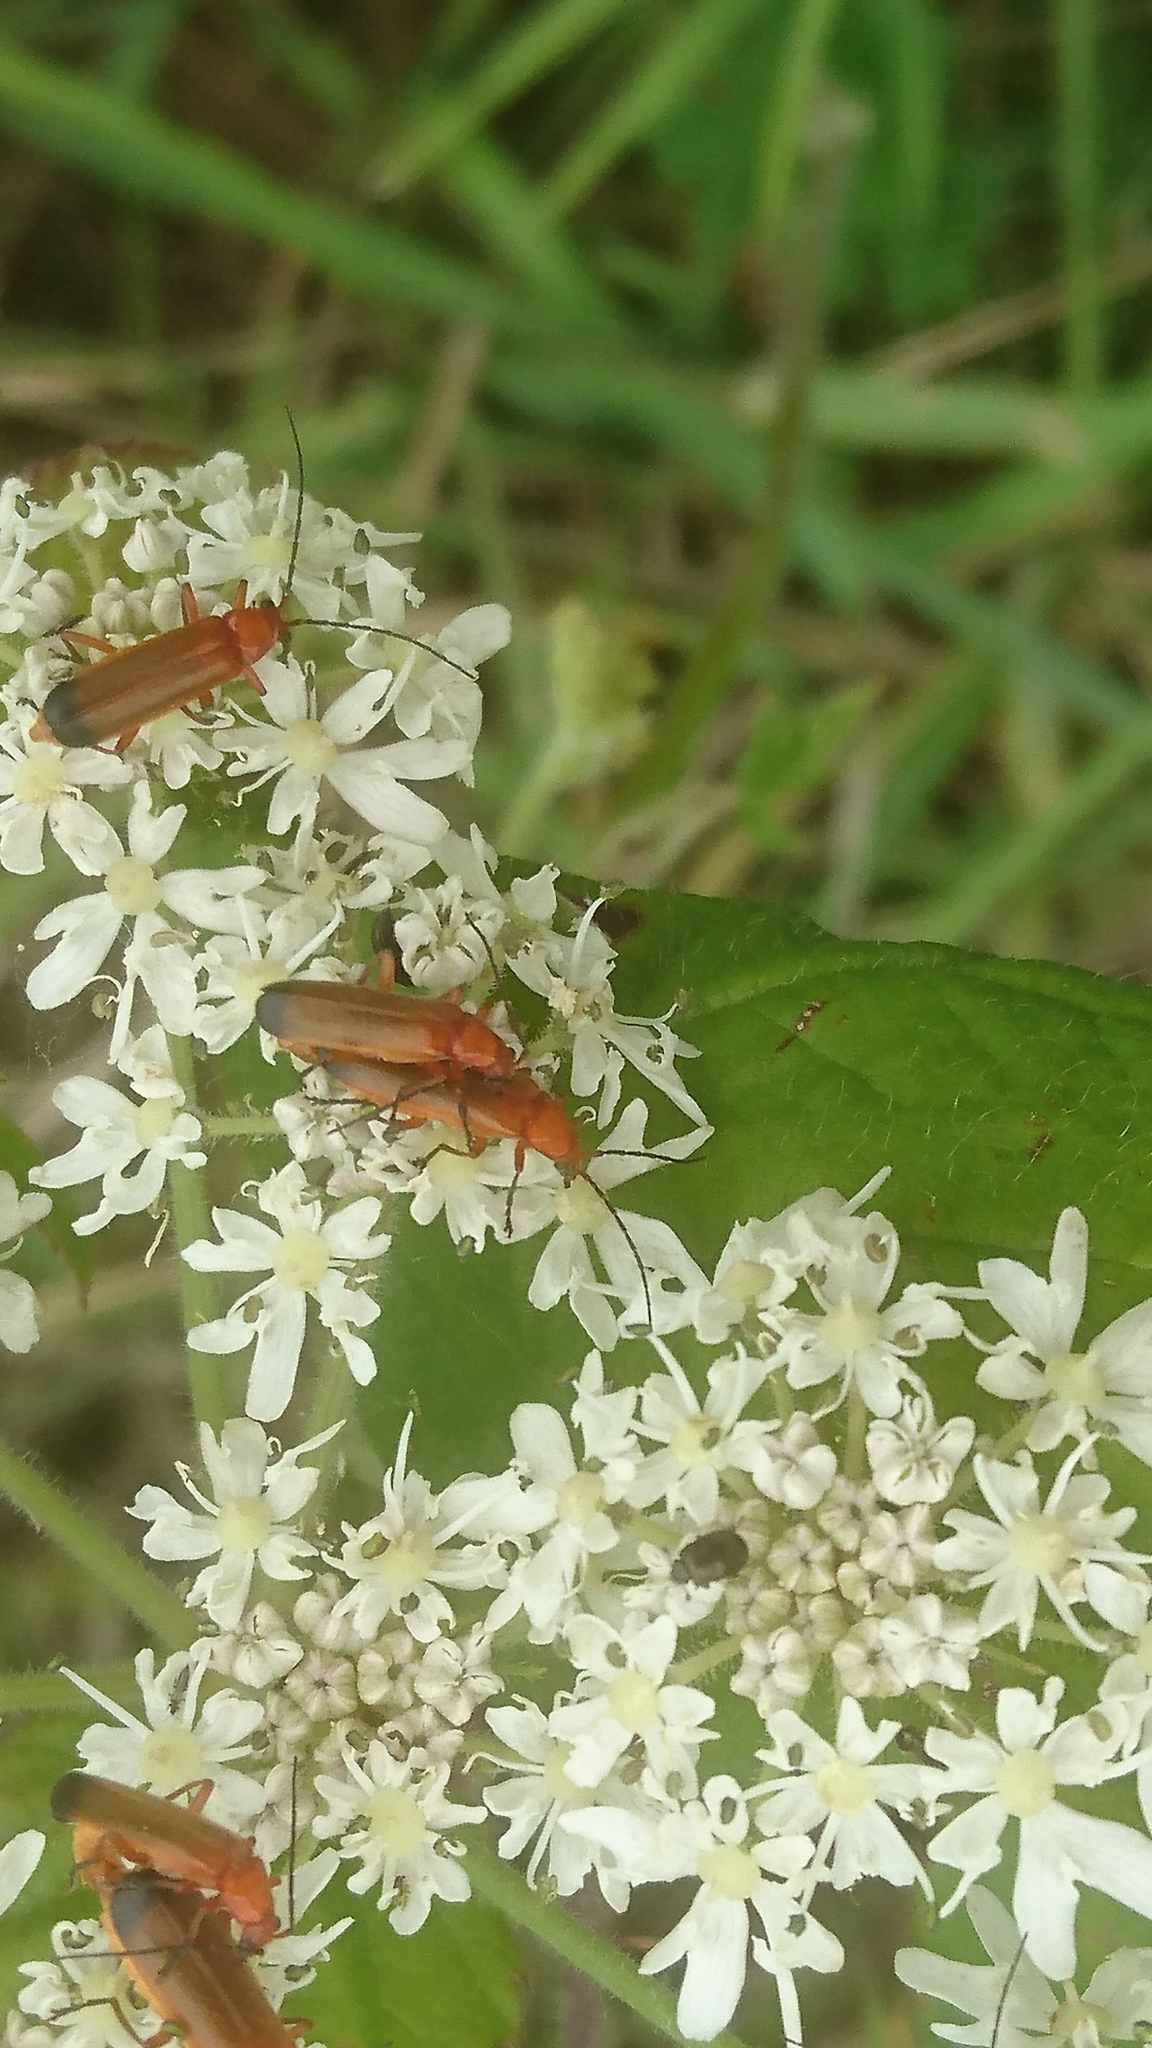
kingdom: Animalia
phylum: Arthropoda
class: Insecta
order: Coleoptera
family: Cantharidae
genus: Rhagonycha
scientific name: Rhagonycha fulva
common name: Common red soldier beetle
